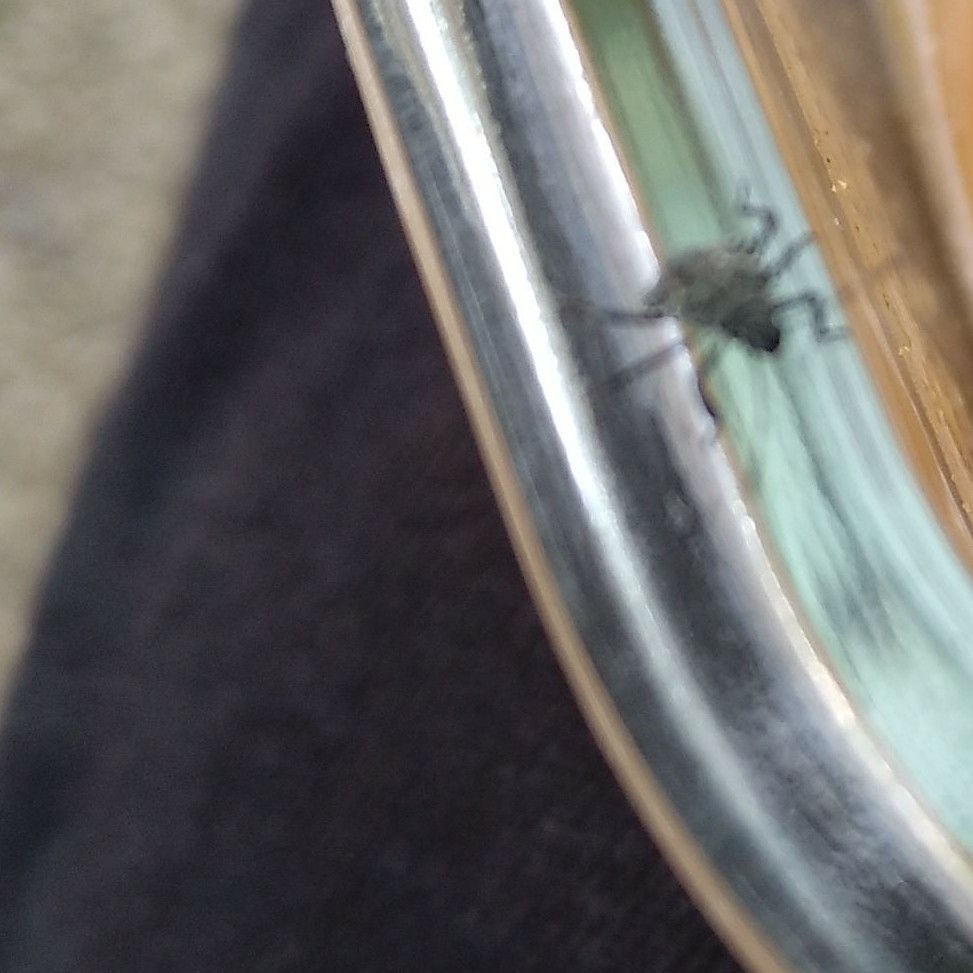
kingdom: Animalia
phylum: Arthropoda
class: Insecta
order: Hemiptera
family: Pentatomidae
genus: Halyomorpha
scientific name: Halyomorpha halys
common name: Brown marmorated stink bug
